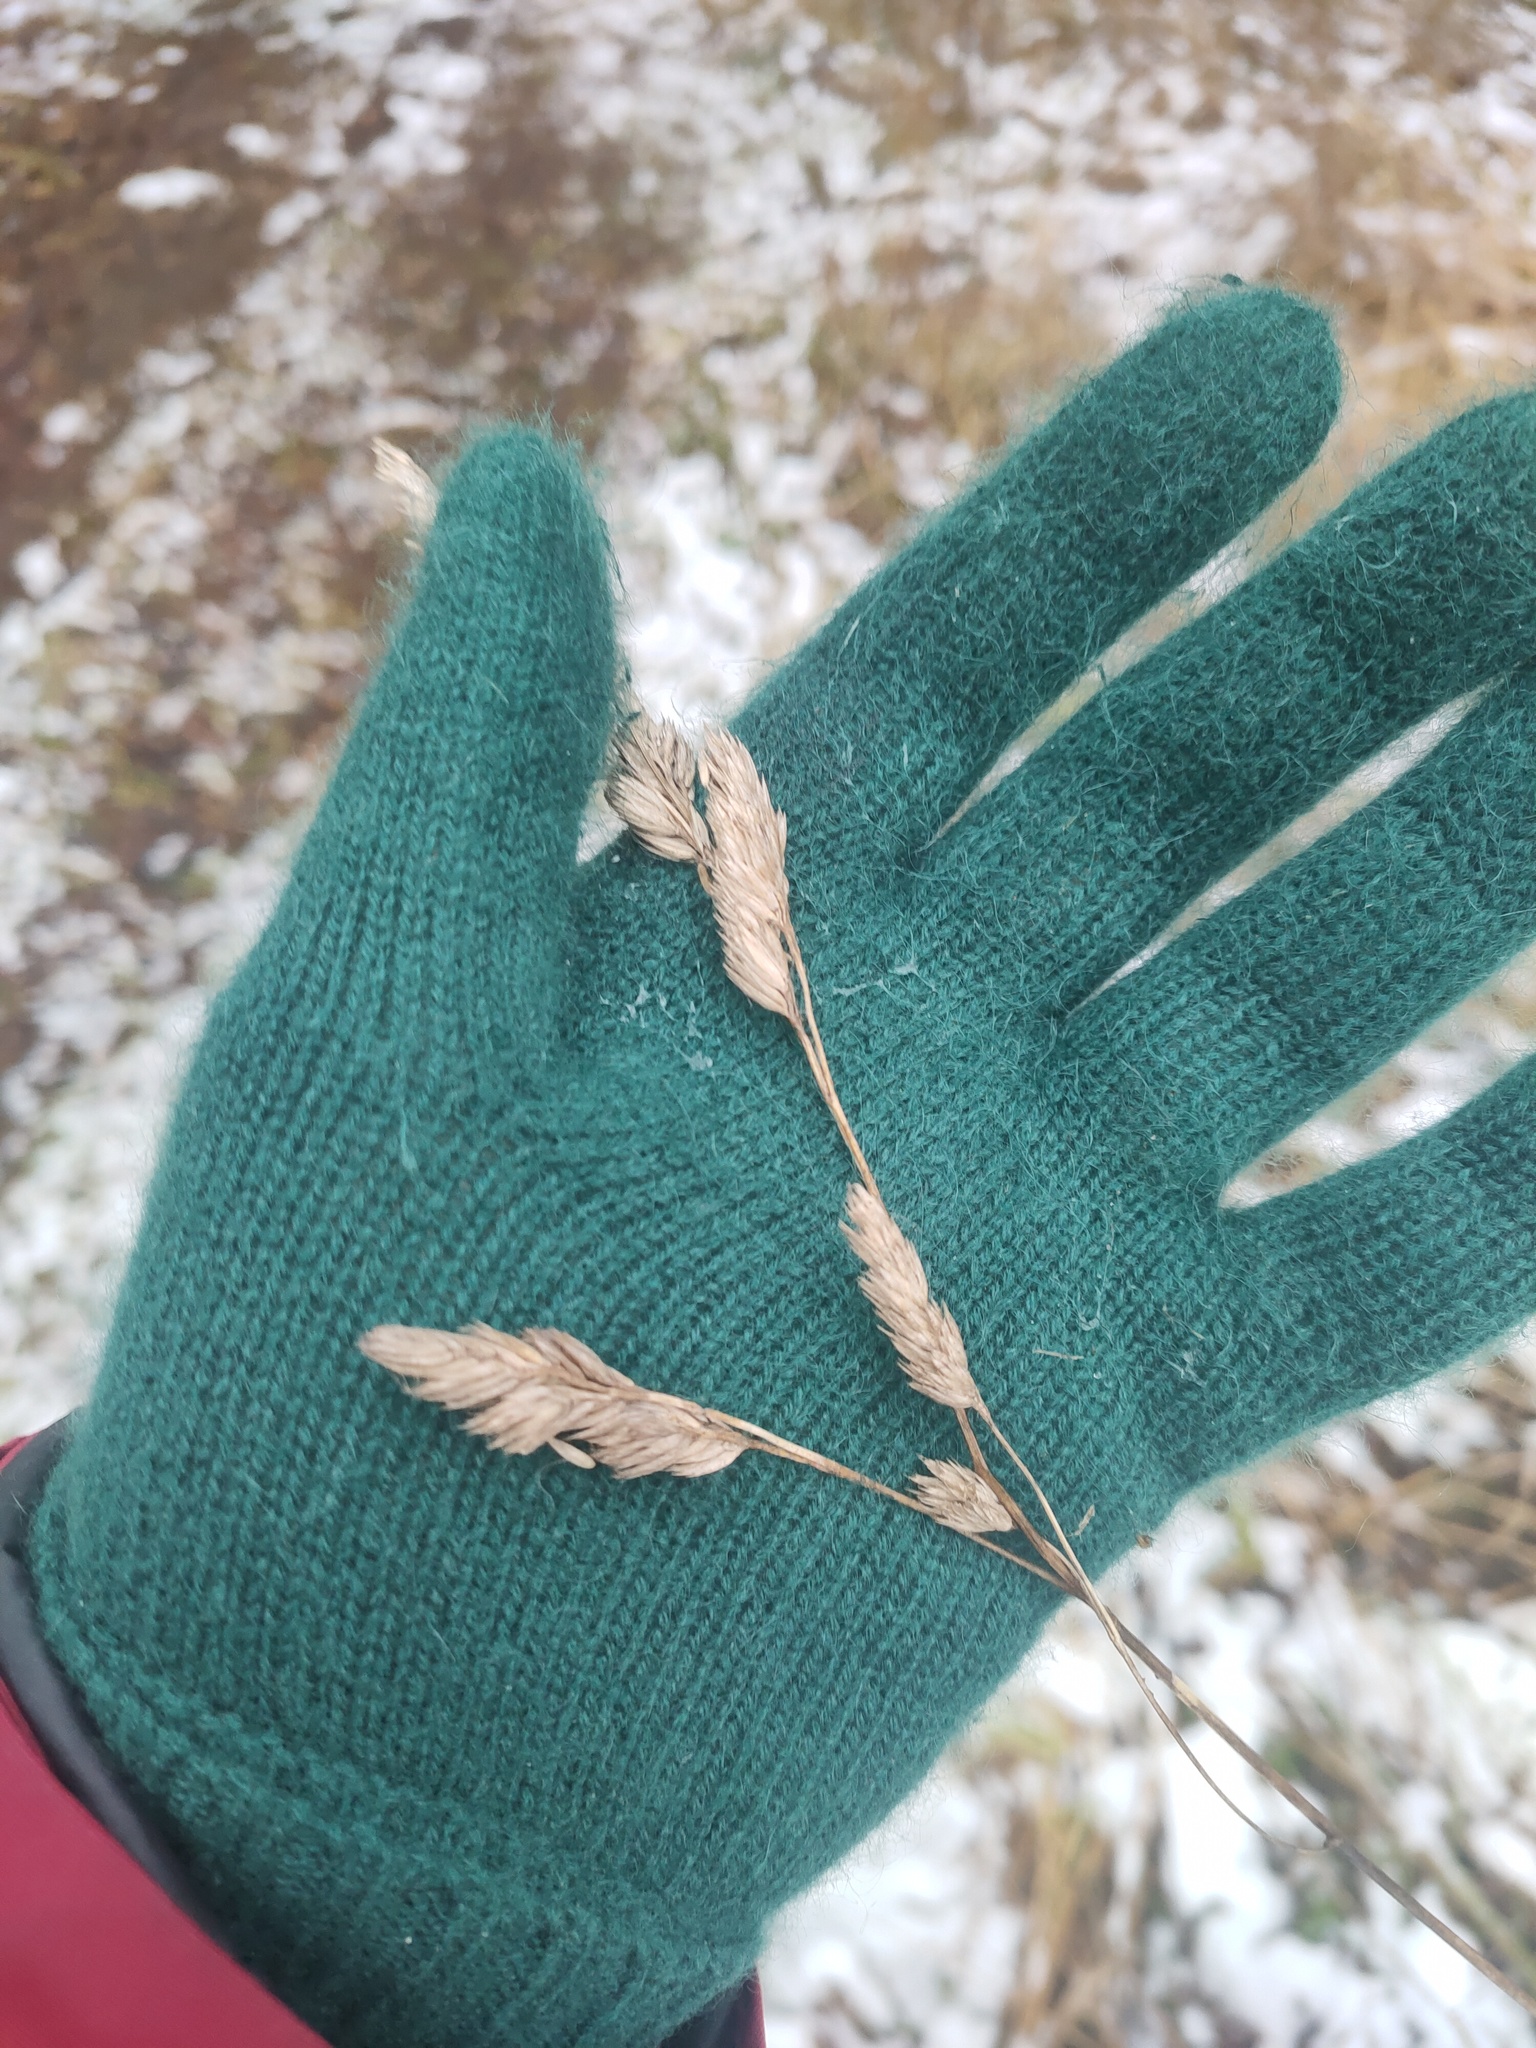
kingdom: Plantae
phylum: Tracheophyta
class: Liliopsida
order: Poales
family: Poaceae
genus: Dactylis
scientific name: Dactylis glomerata
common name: Orchardgrass
